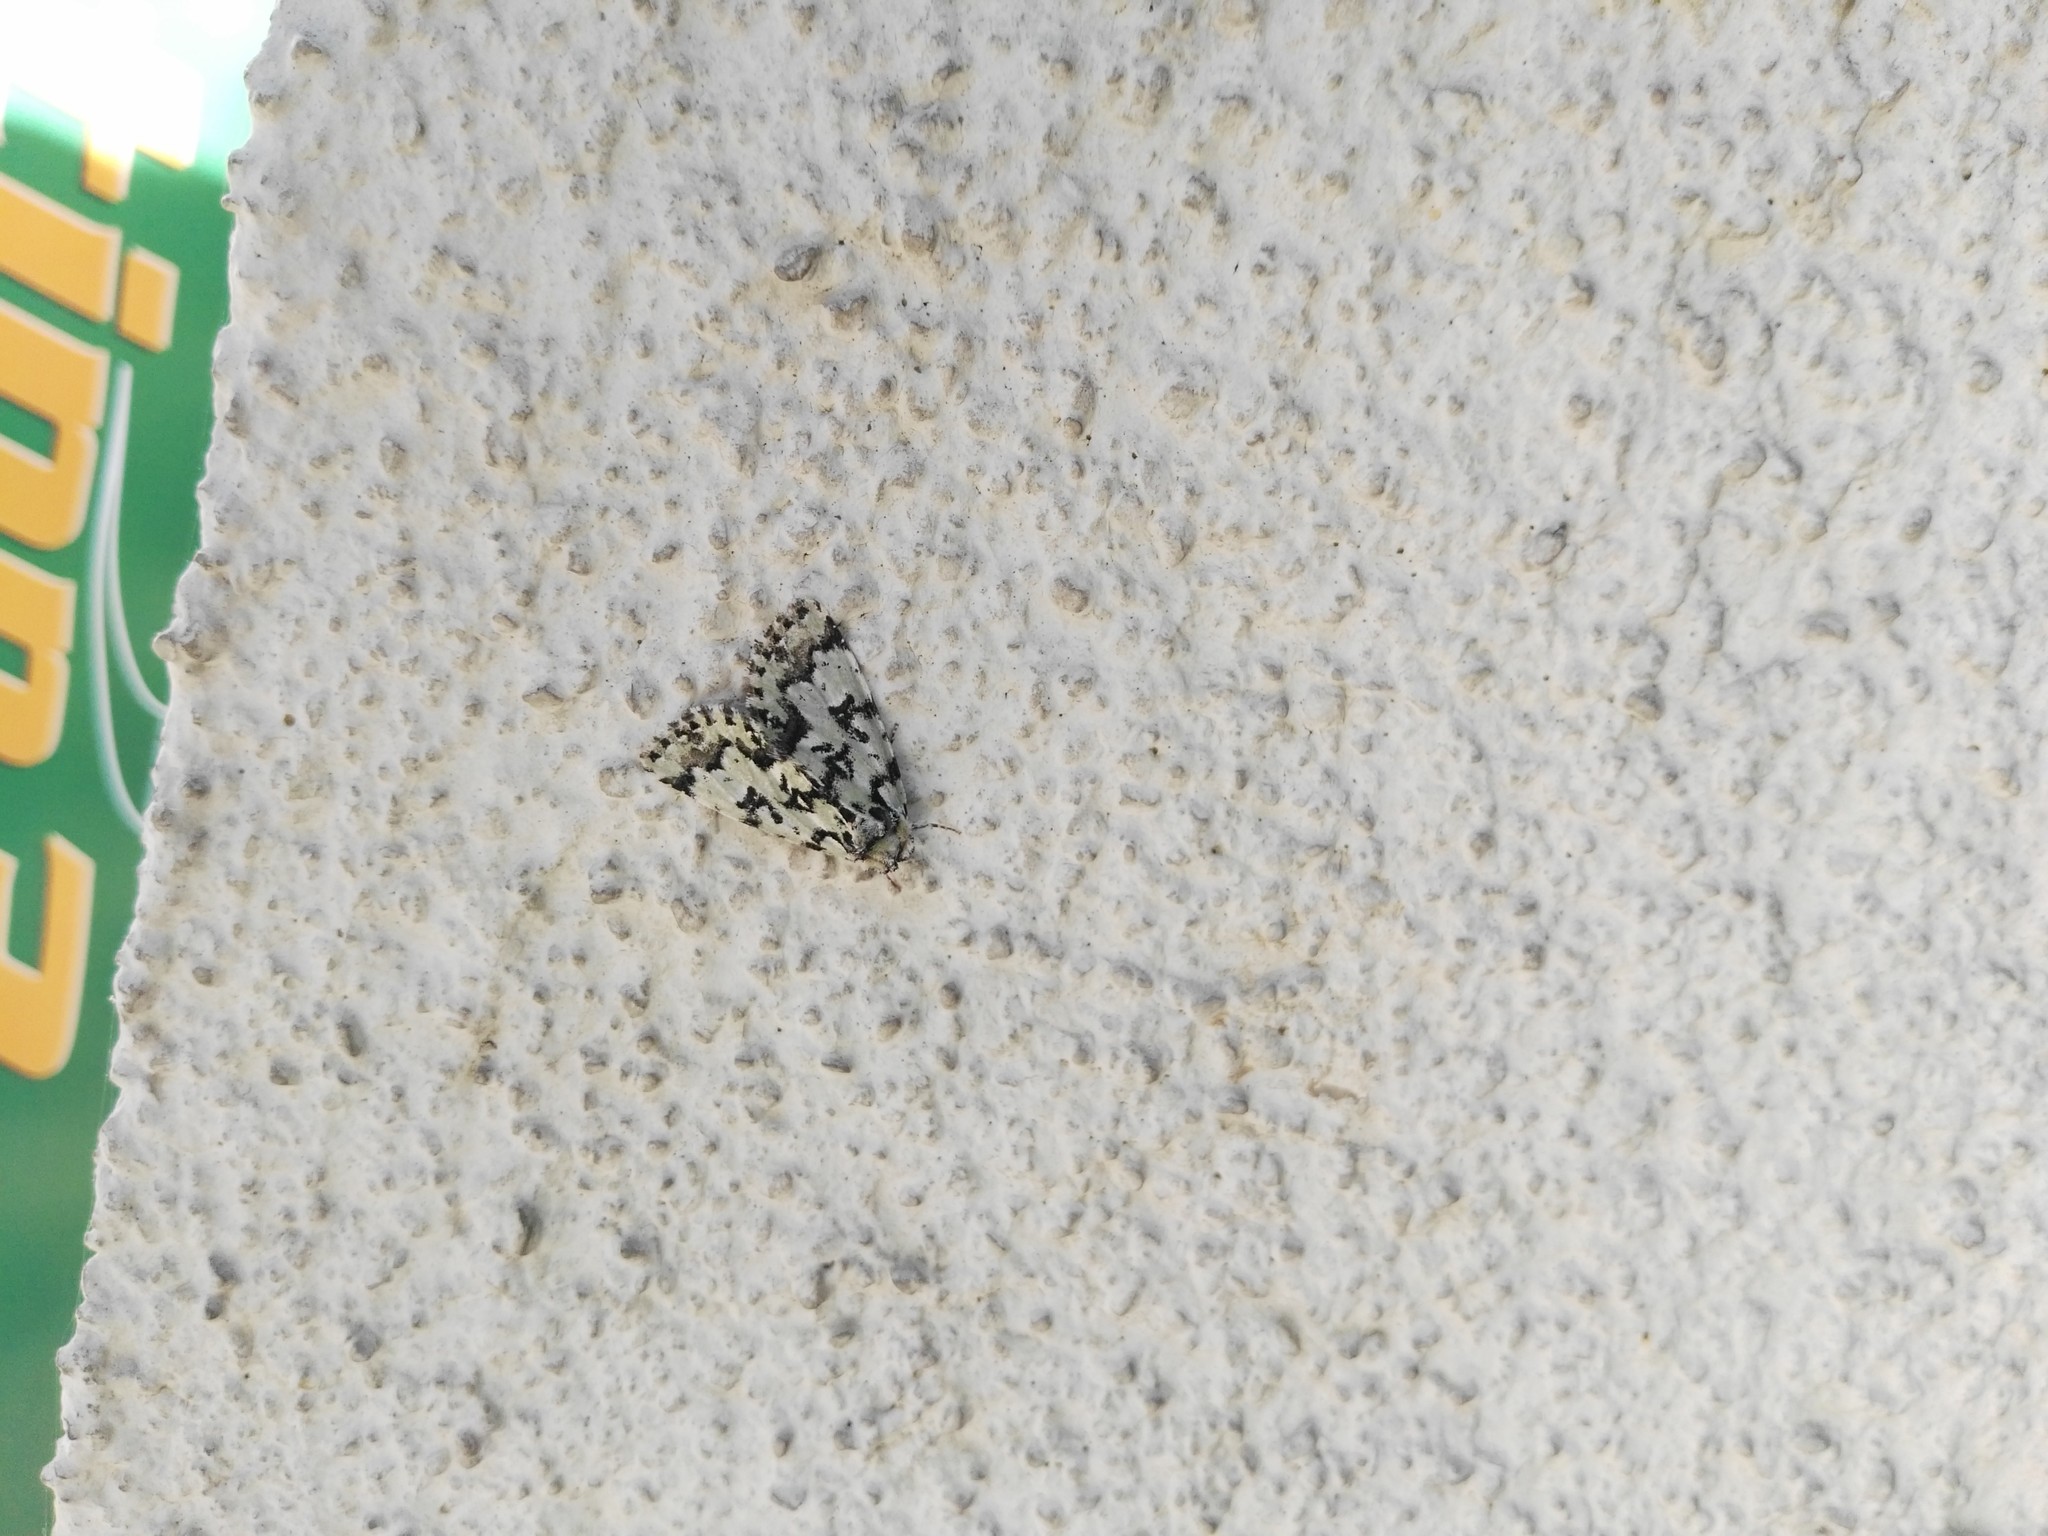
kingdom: Animalia
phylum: Arthropoda
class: Insecta
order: Lepidoptera
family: Noctuidae
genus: Moma
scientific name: Moma alpium
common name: Scarce merveille du jour
